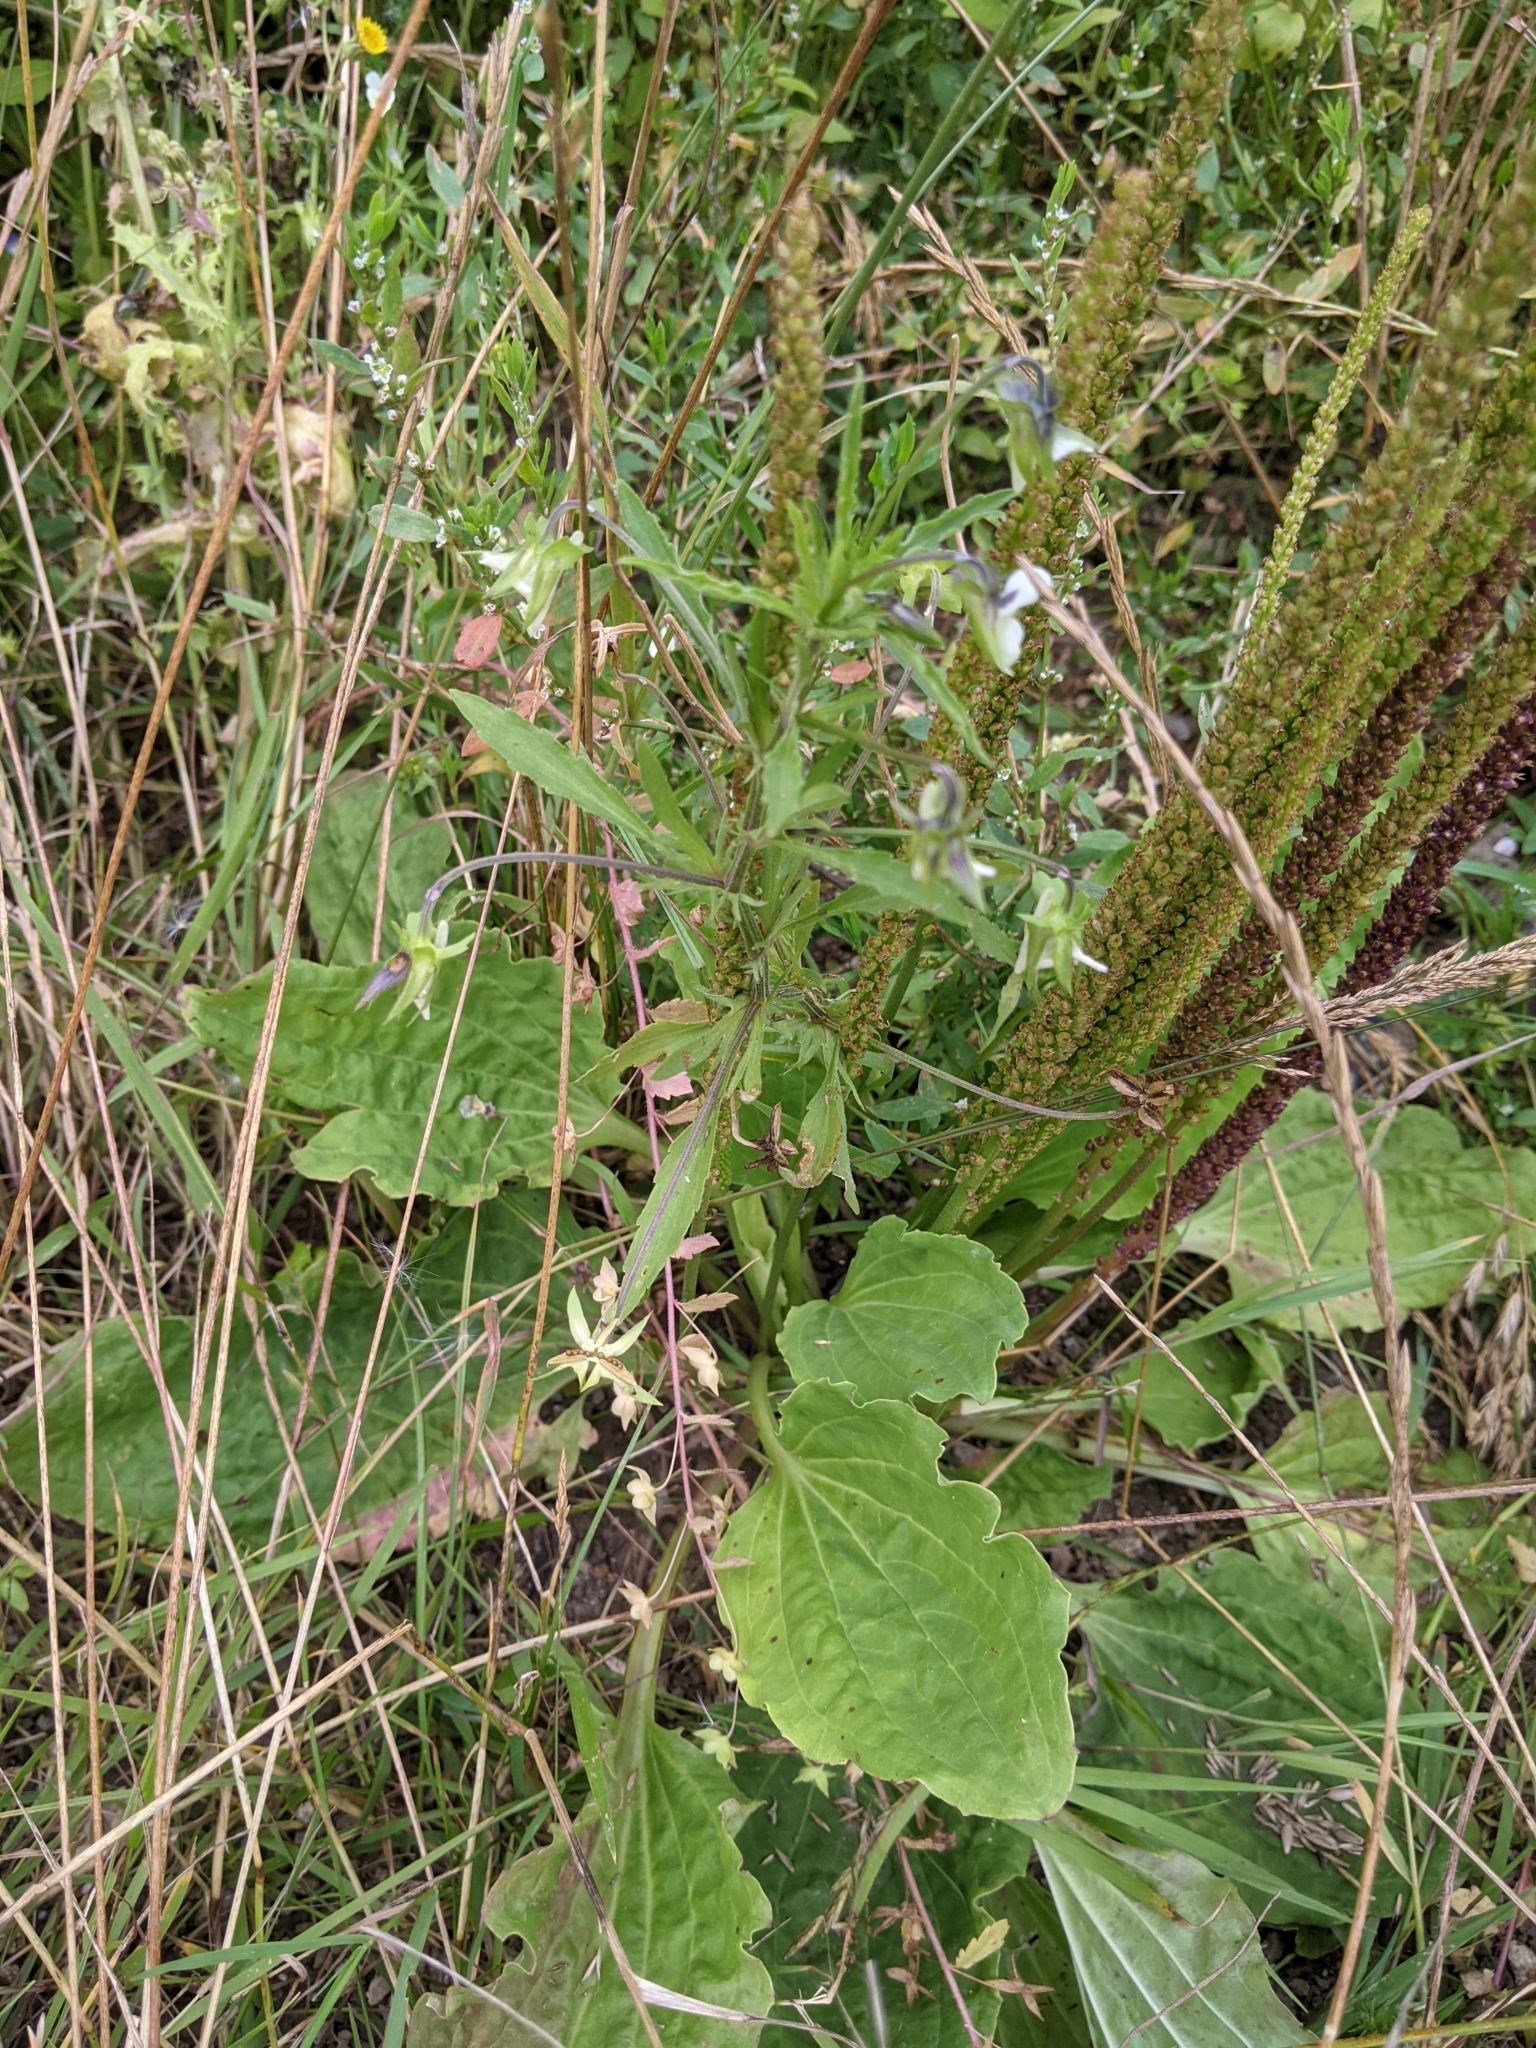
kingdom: Plantae
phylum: Tracheophyta
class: Magnoliopsida
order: Malpighiales
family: Violaceae
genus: Viola
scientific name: Viola arvensis
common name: Field pansy
